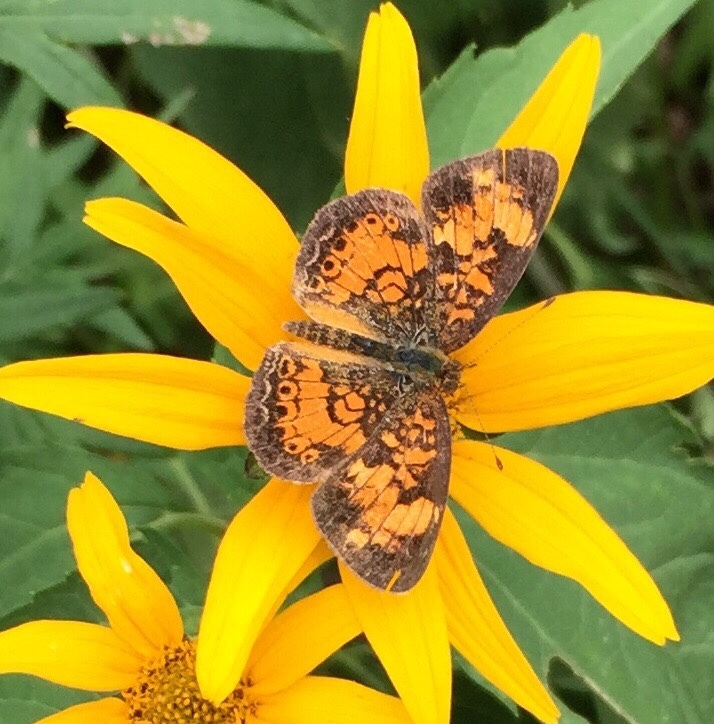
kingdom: Animalia
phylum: Arthropoda
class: Insecta
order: Lepidoptera
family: Nymphalidae
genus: Phyciodes
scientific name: Phyciodes tharos
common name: Pearl crescent
